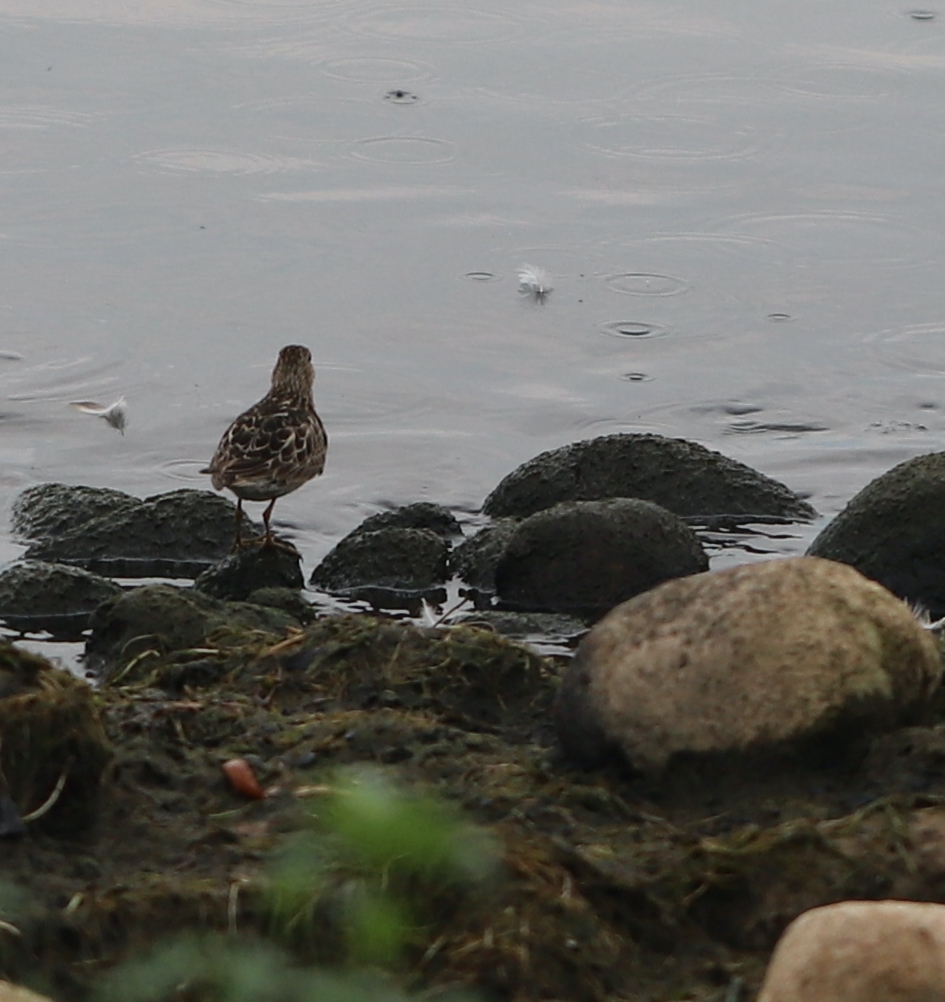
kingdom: Animalia
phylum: Chordata
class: Aves
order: Charadriiformes
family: Scolopacidae
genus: Calidris
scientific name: Calidris melanotos
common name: Pectoral sandpiper
